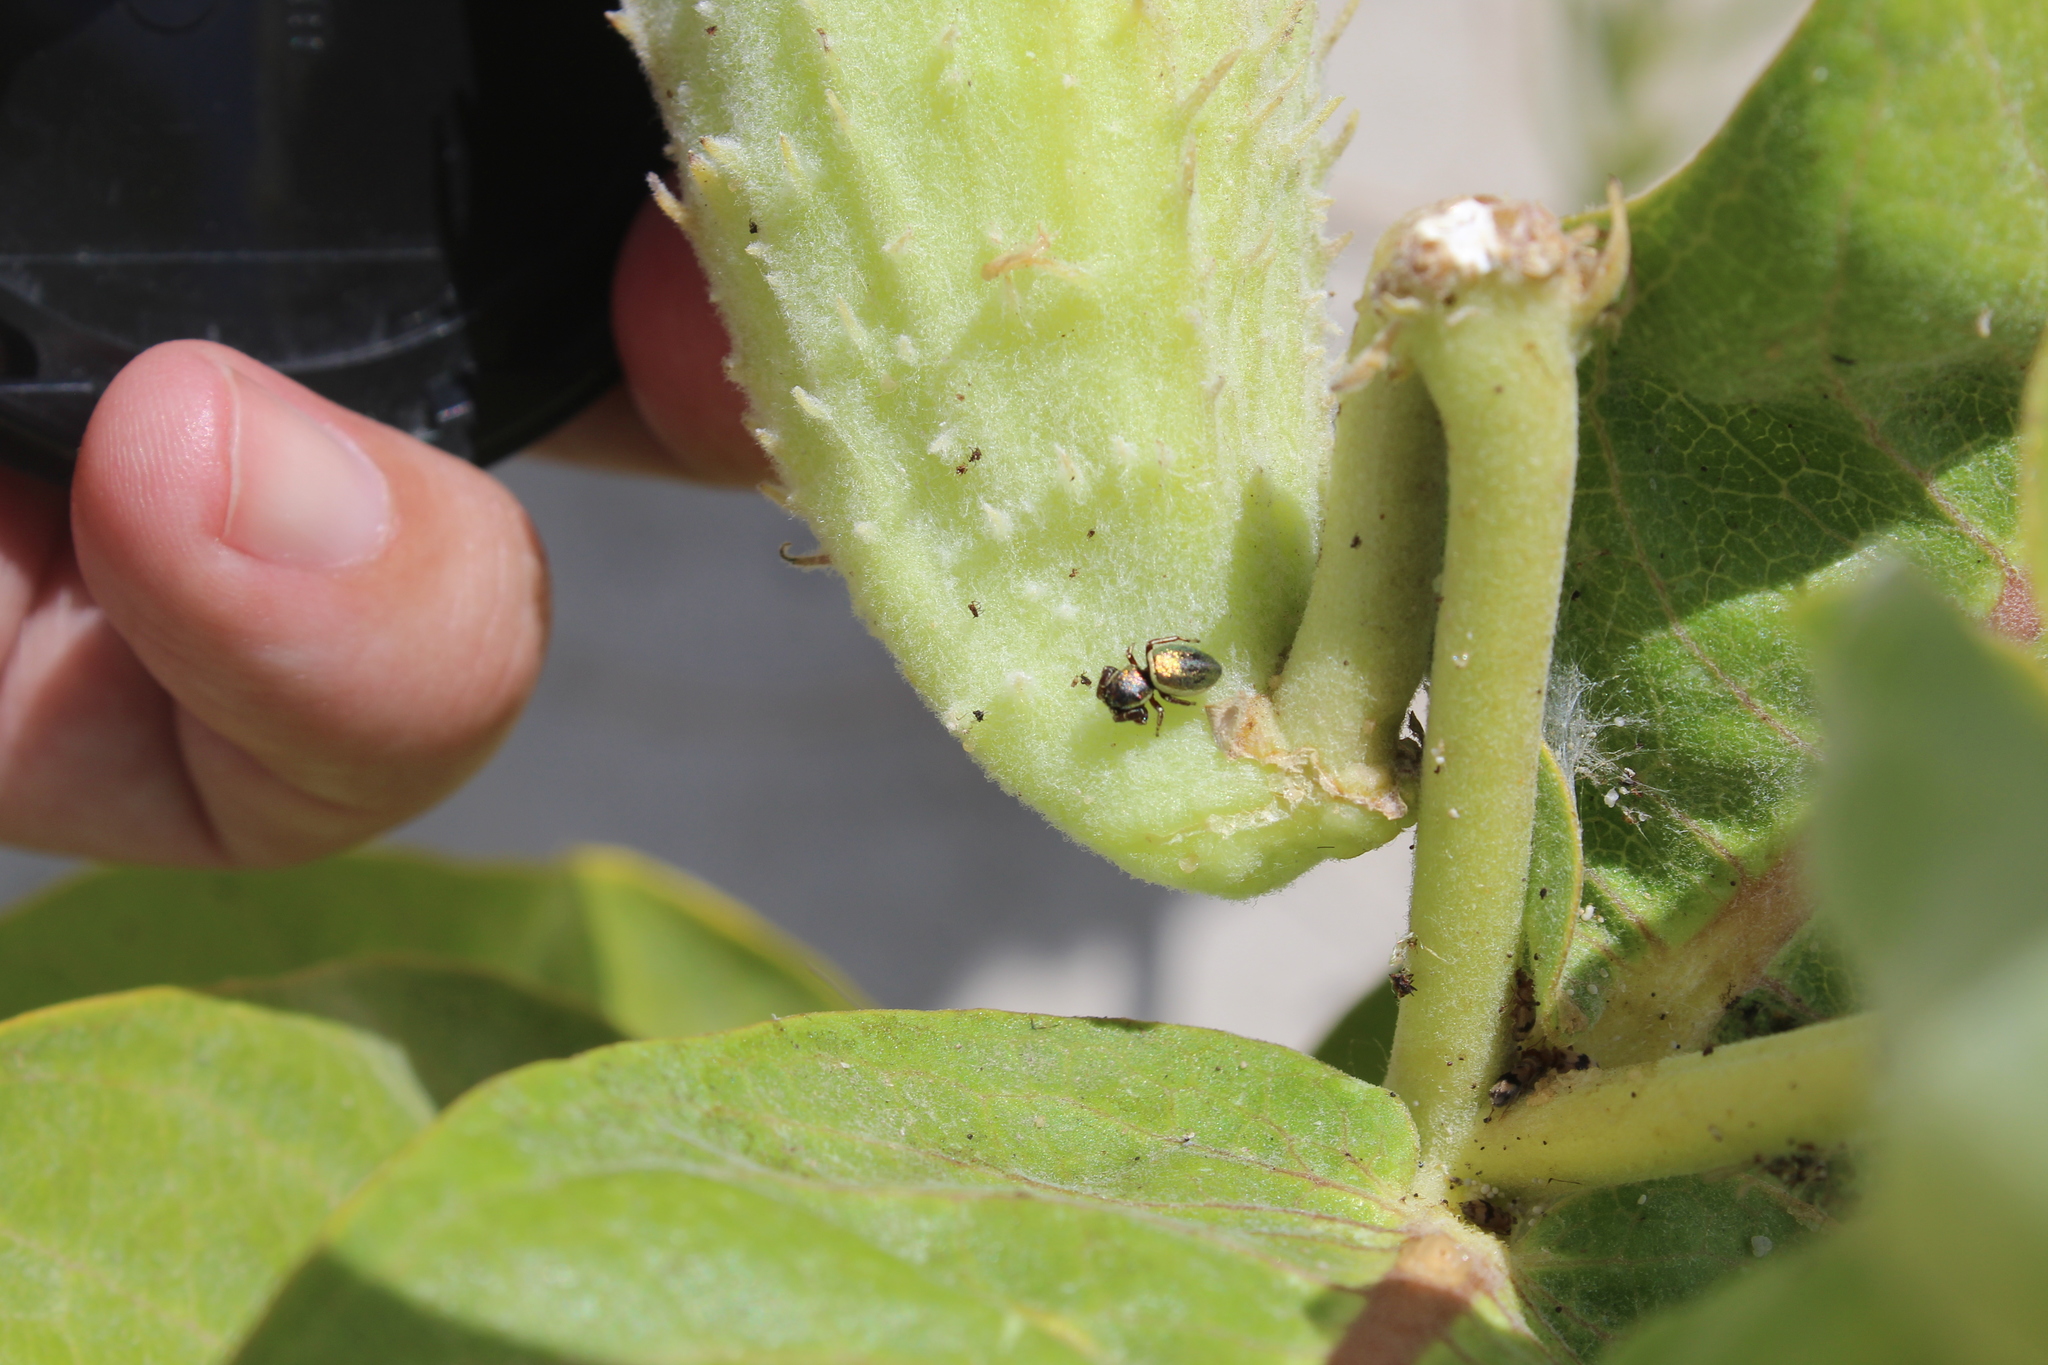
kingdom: Animalia
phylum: Arthropoda
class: Arachnida
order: Araneae
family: Salticidae
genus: Sassacus
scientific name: Sassacus papenhoei
